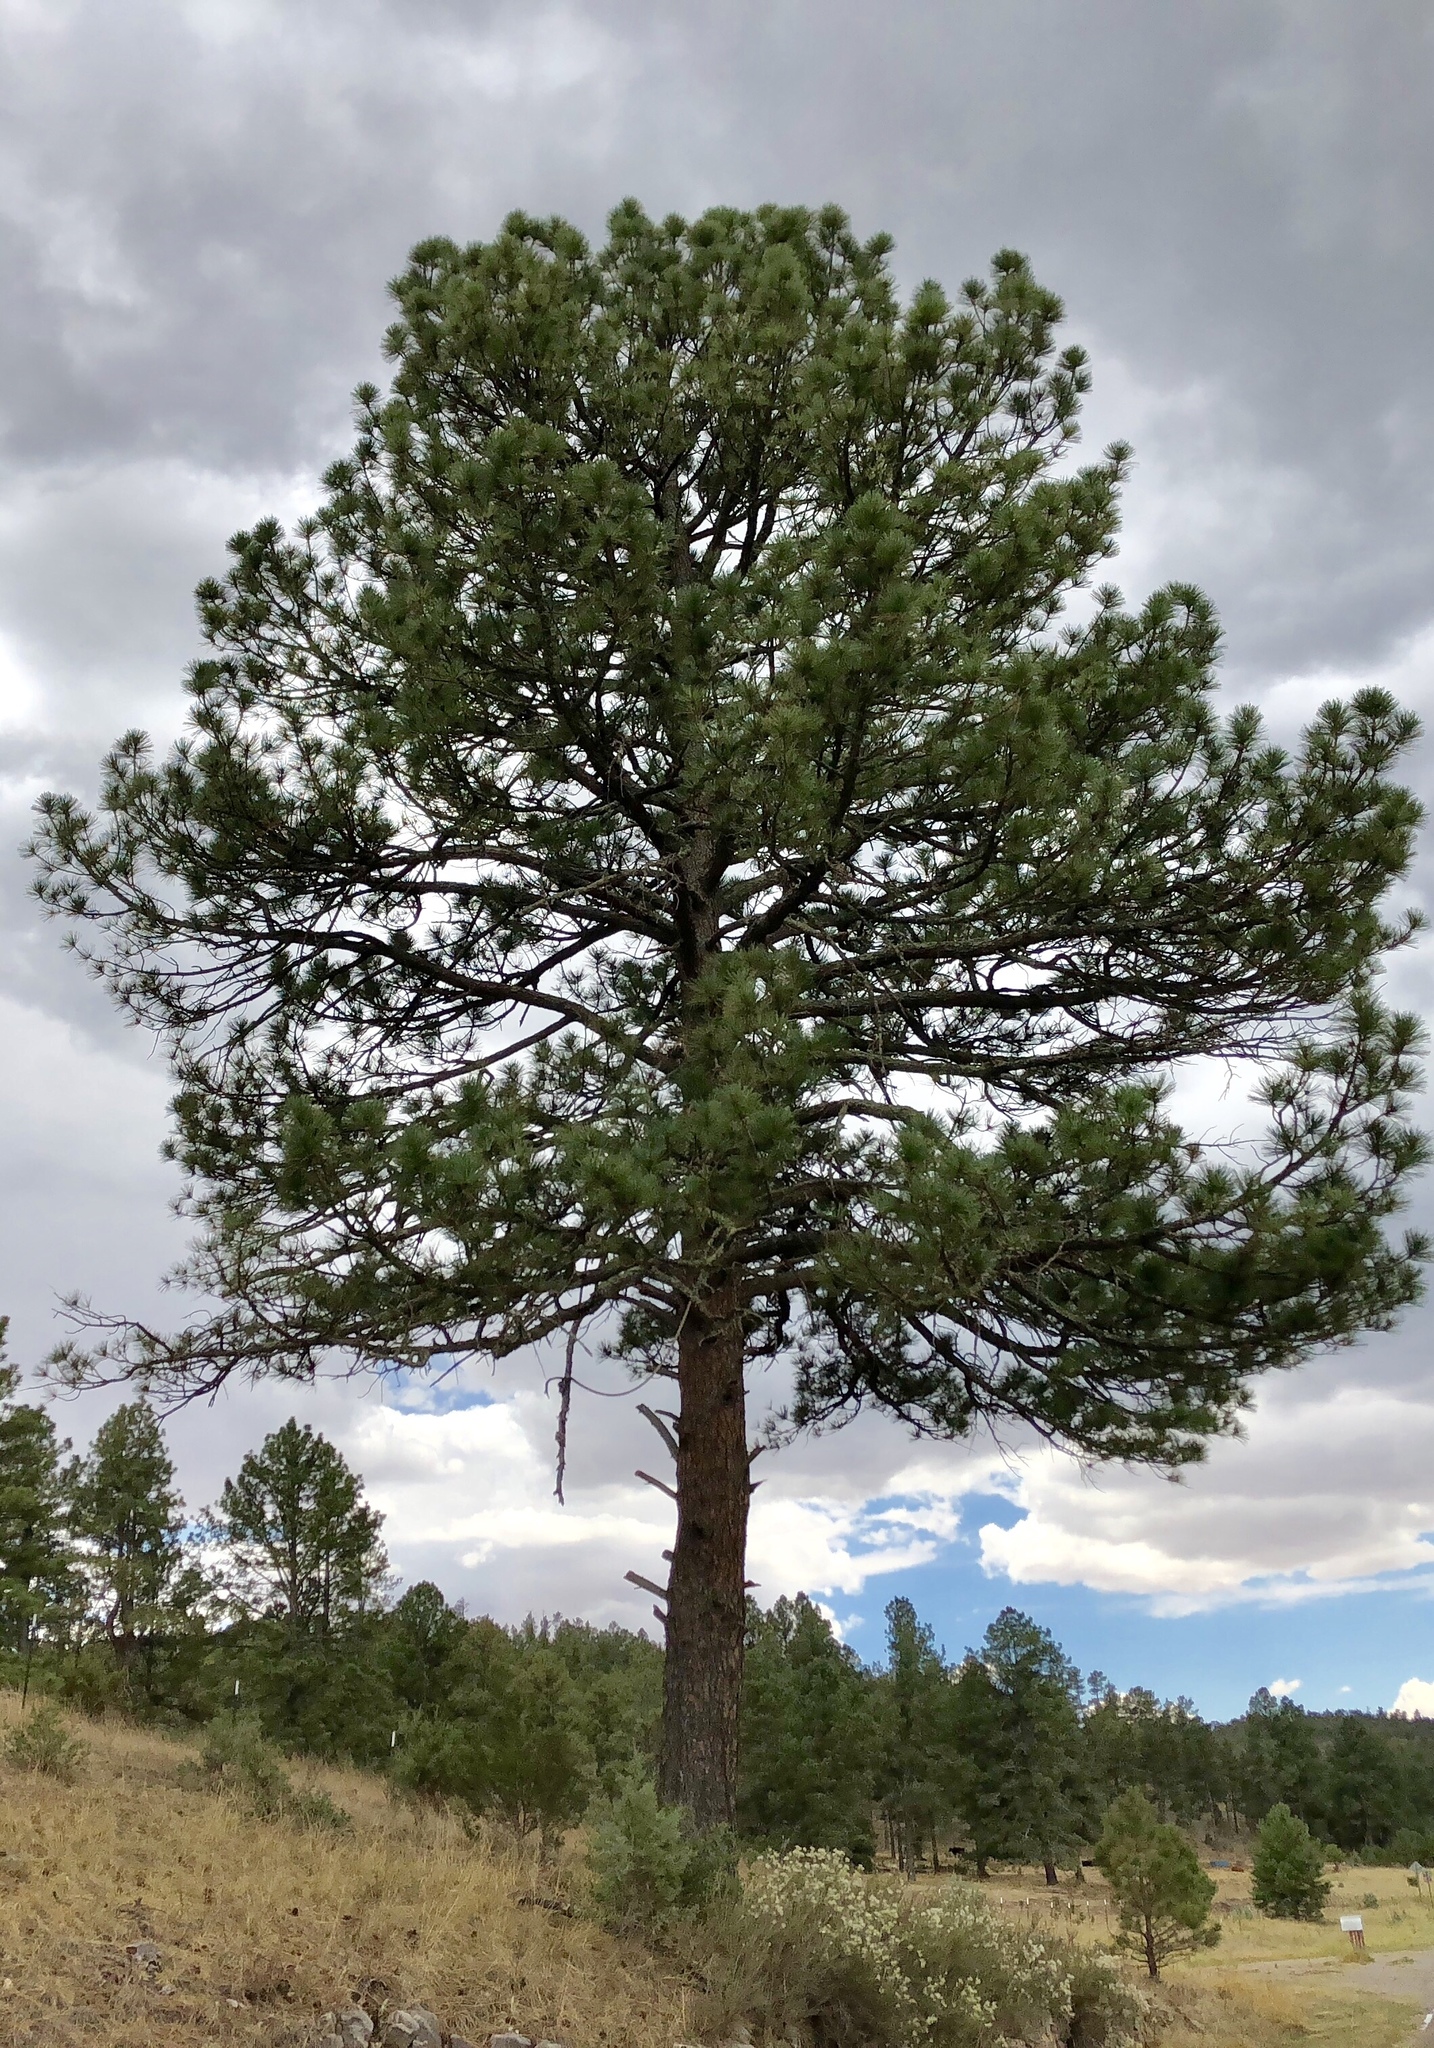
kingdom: Plantae
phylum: Tracheophyta
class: Pinopsida
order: Pinales
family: Pinaceae
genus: Pinus
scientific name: Pinus ponderosa
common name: Western yellow-pine
